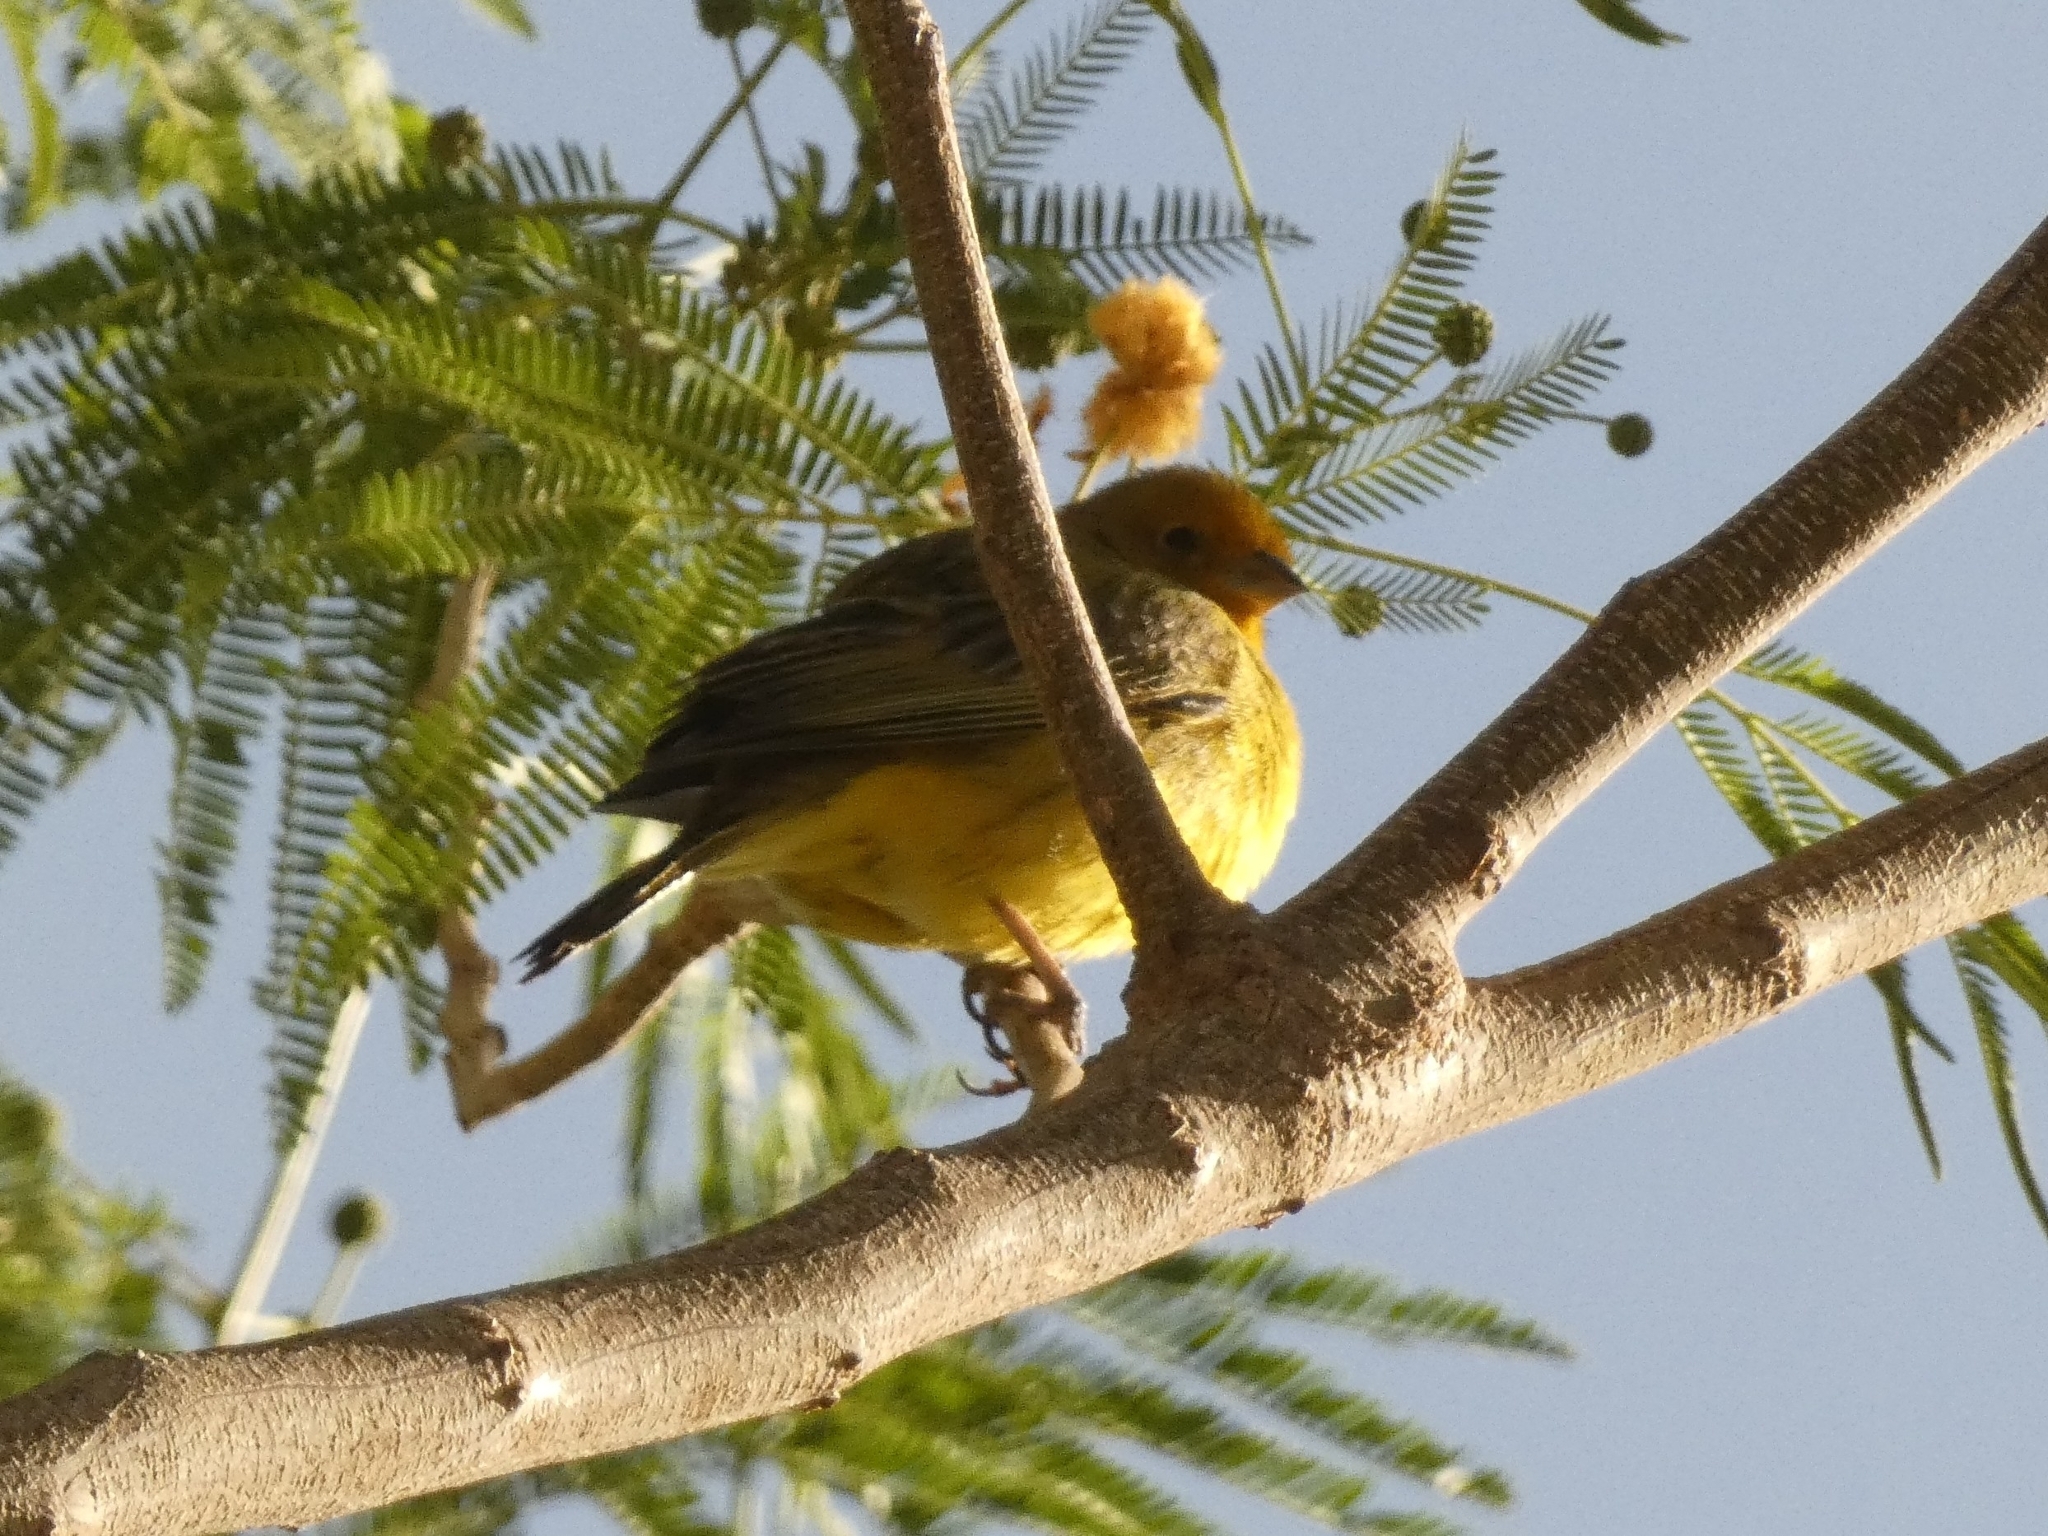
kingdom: Animalia
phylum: Chordata
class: Aves
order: Passeriformes
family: Thraupidae
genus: Sicalis
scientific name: Sicalis flaveola
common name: Saffron finch
